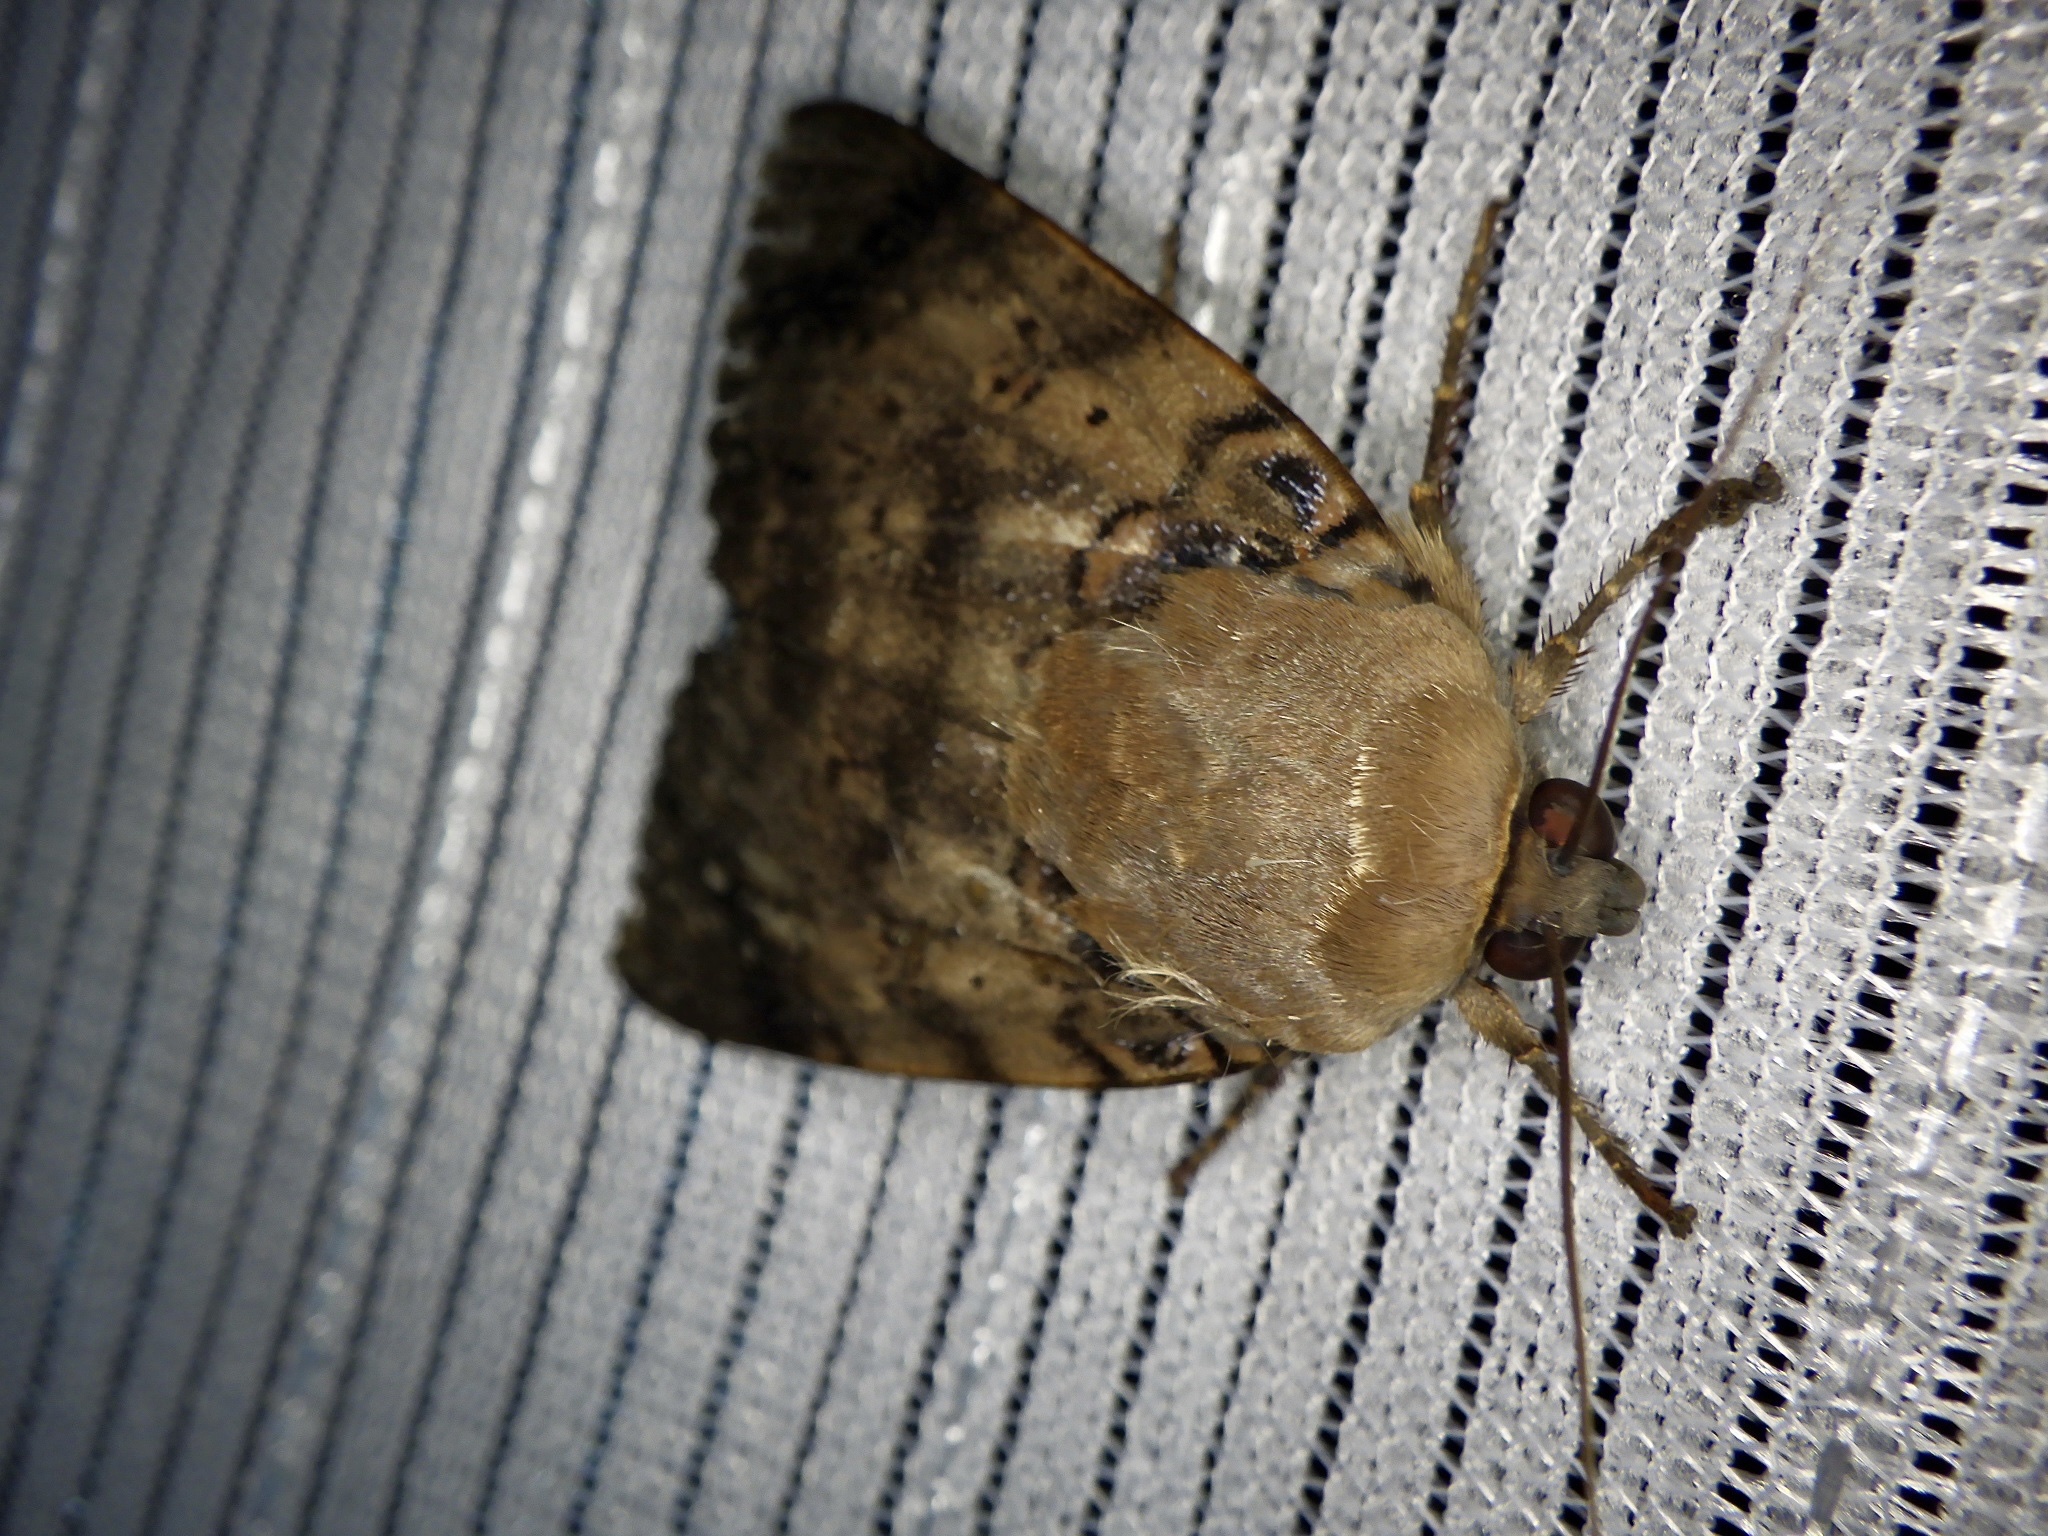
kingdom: Animalia
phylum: Arthropoda
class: Insecta
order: Lepidoptera
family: Erebidae
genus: Arcte
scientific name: Arcte coerula
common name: Ramie moth
